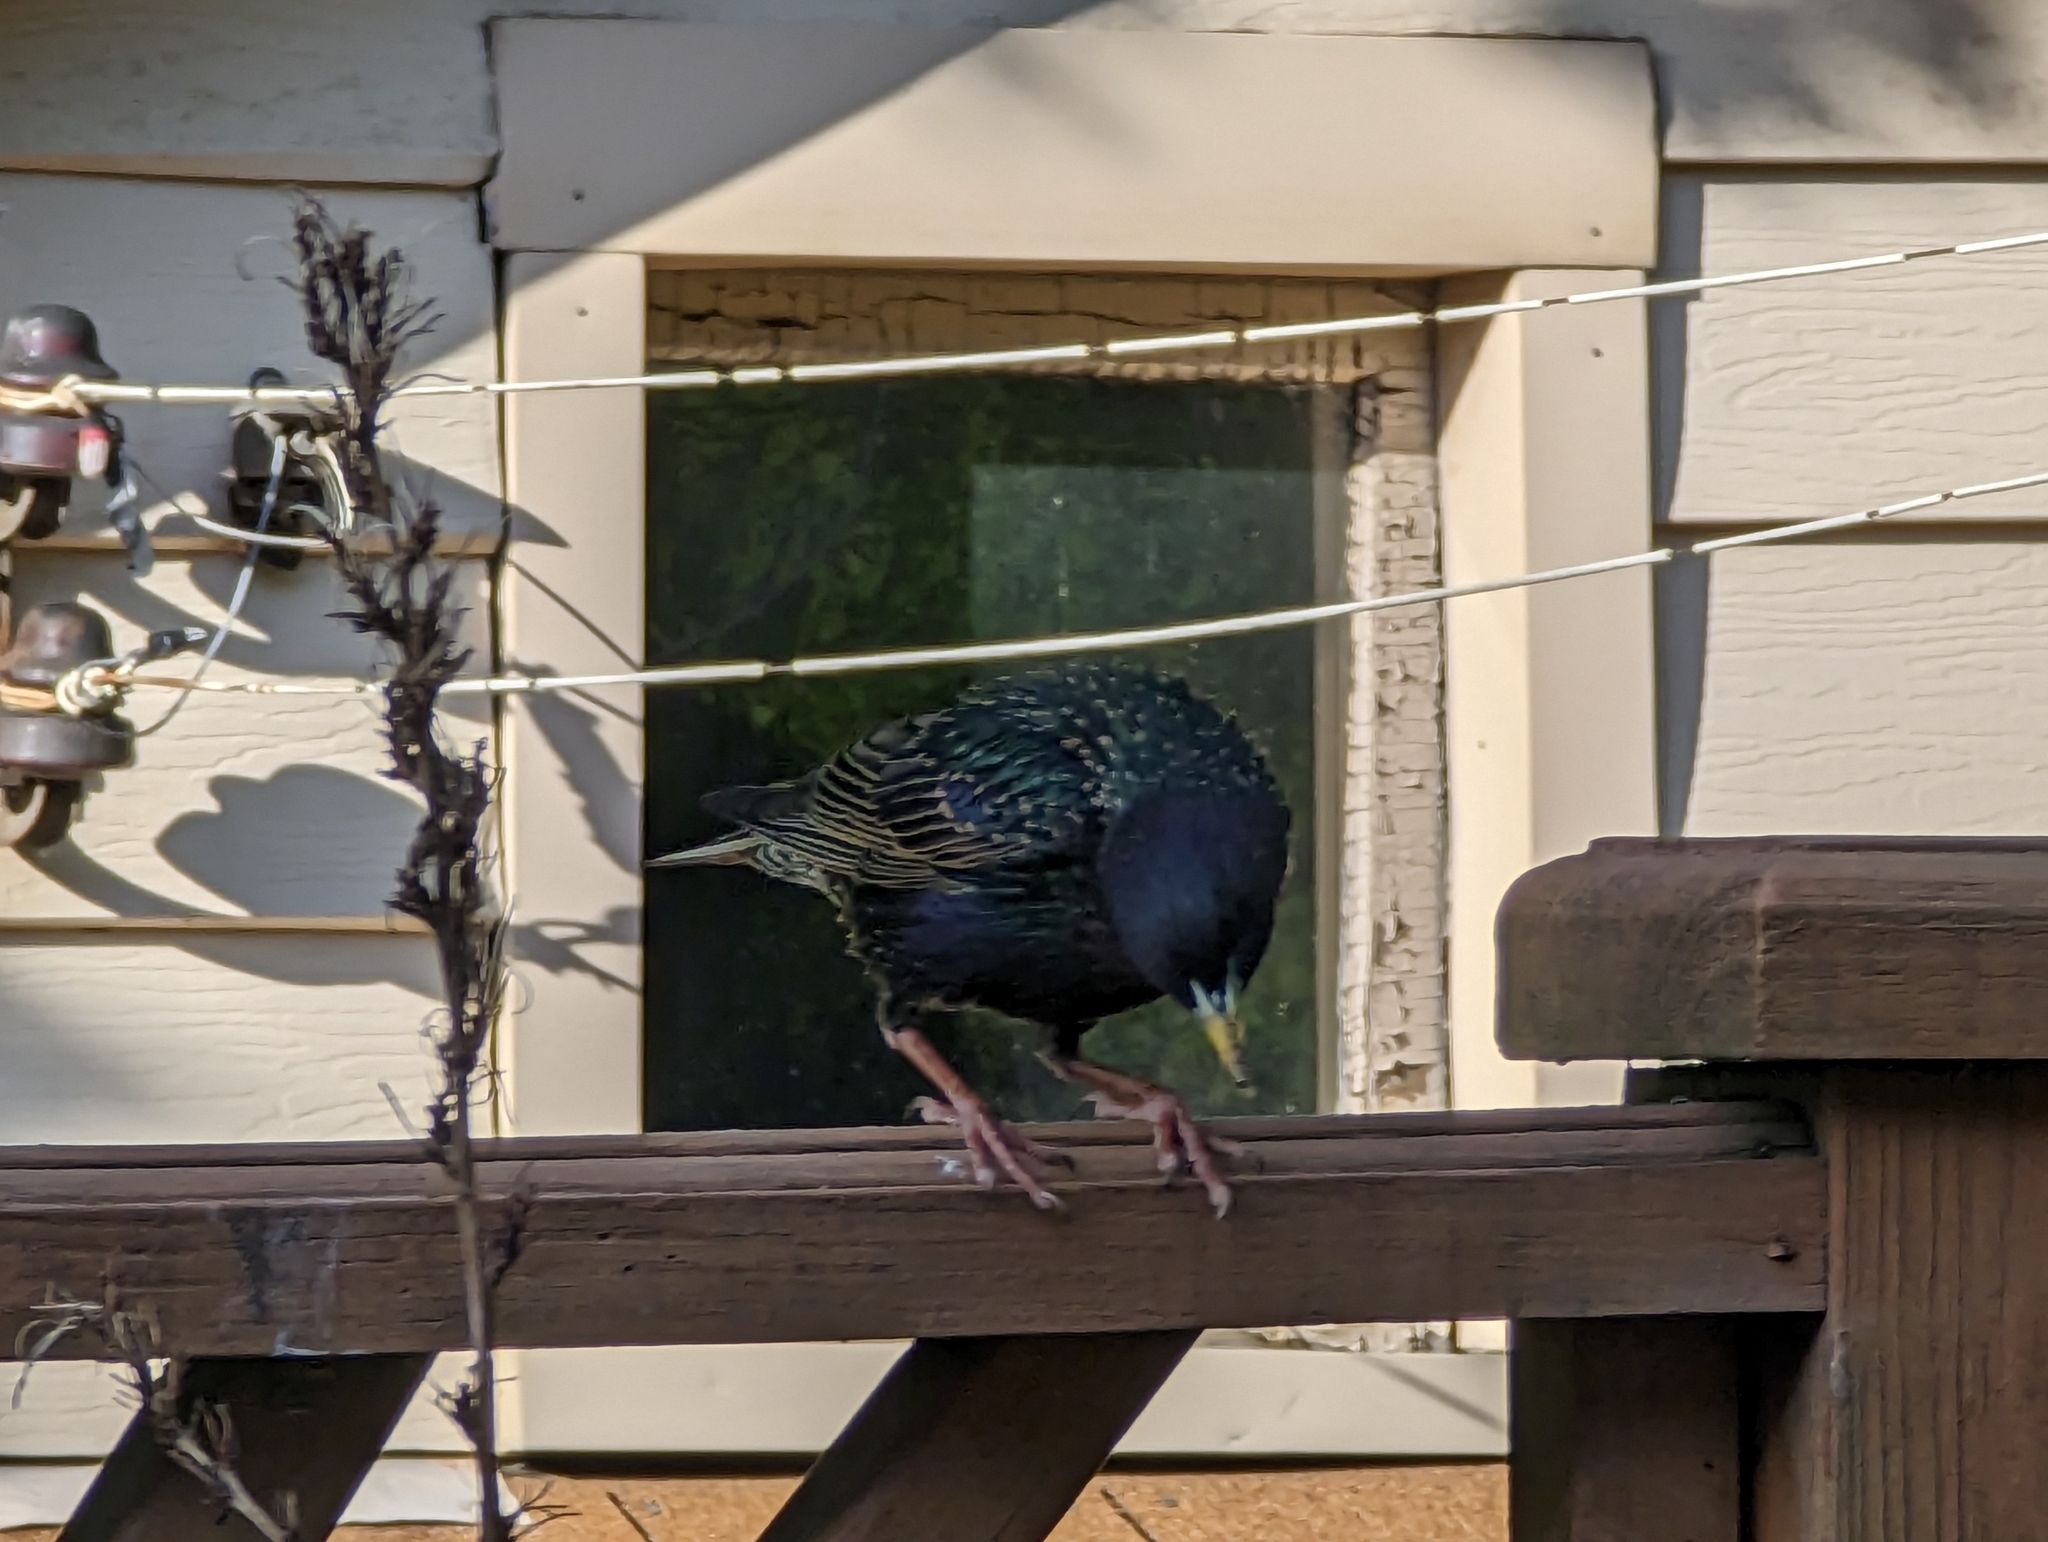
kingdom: Animalia
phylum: Chordata
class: Aves
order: Passeriformes
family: Sturnidae
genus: Sturnus
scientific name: Sturnus vulgaris
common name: Common starling
